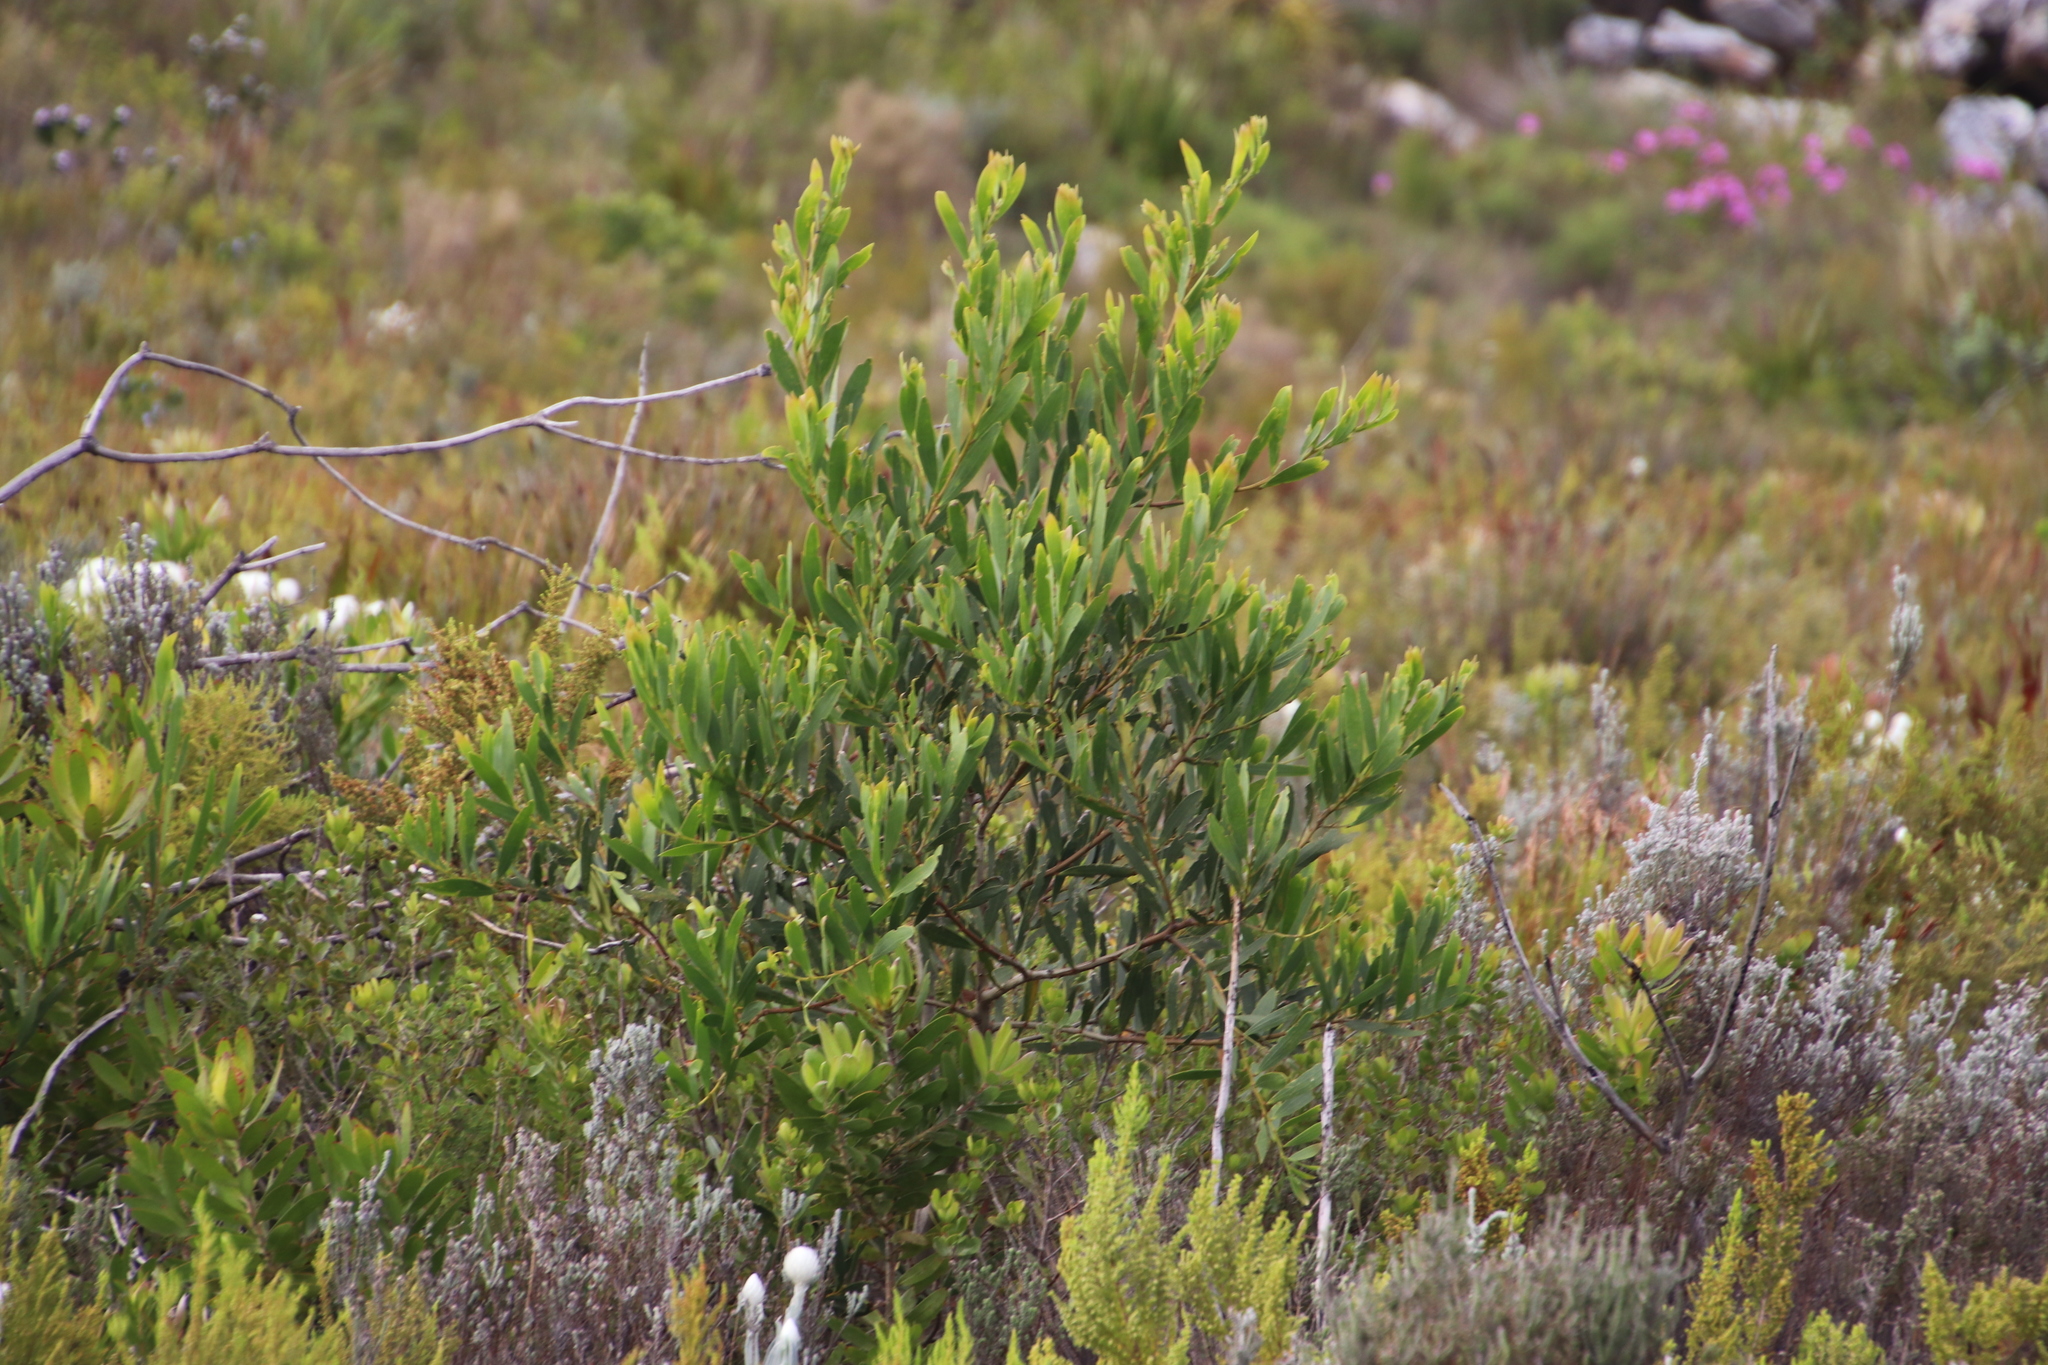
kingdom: Plantae
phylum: Tracheophyta
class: Magnoliopsida
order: Fabales
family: Fabaceae
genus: Acacia
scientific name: Acacia cyclops
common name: Coastal wattle
